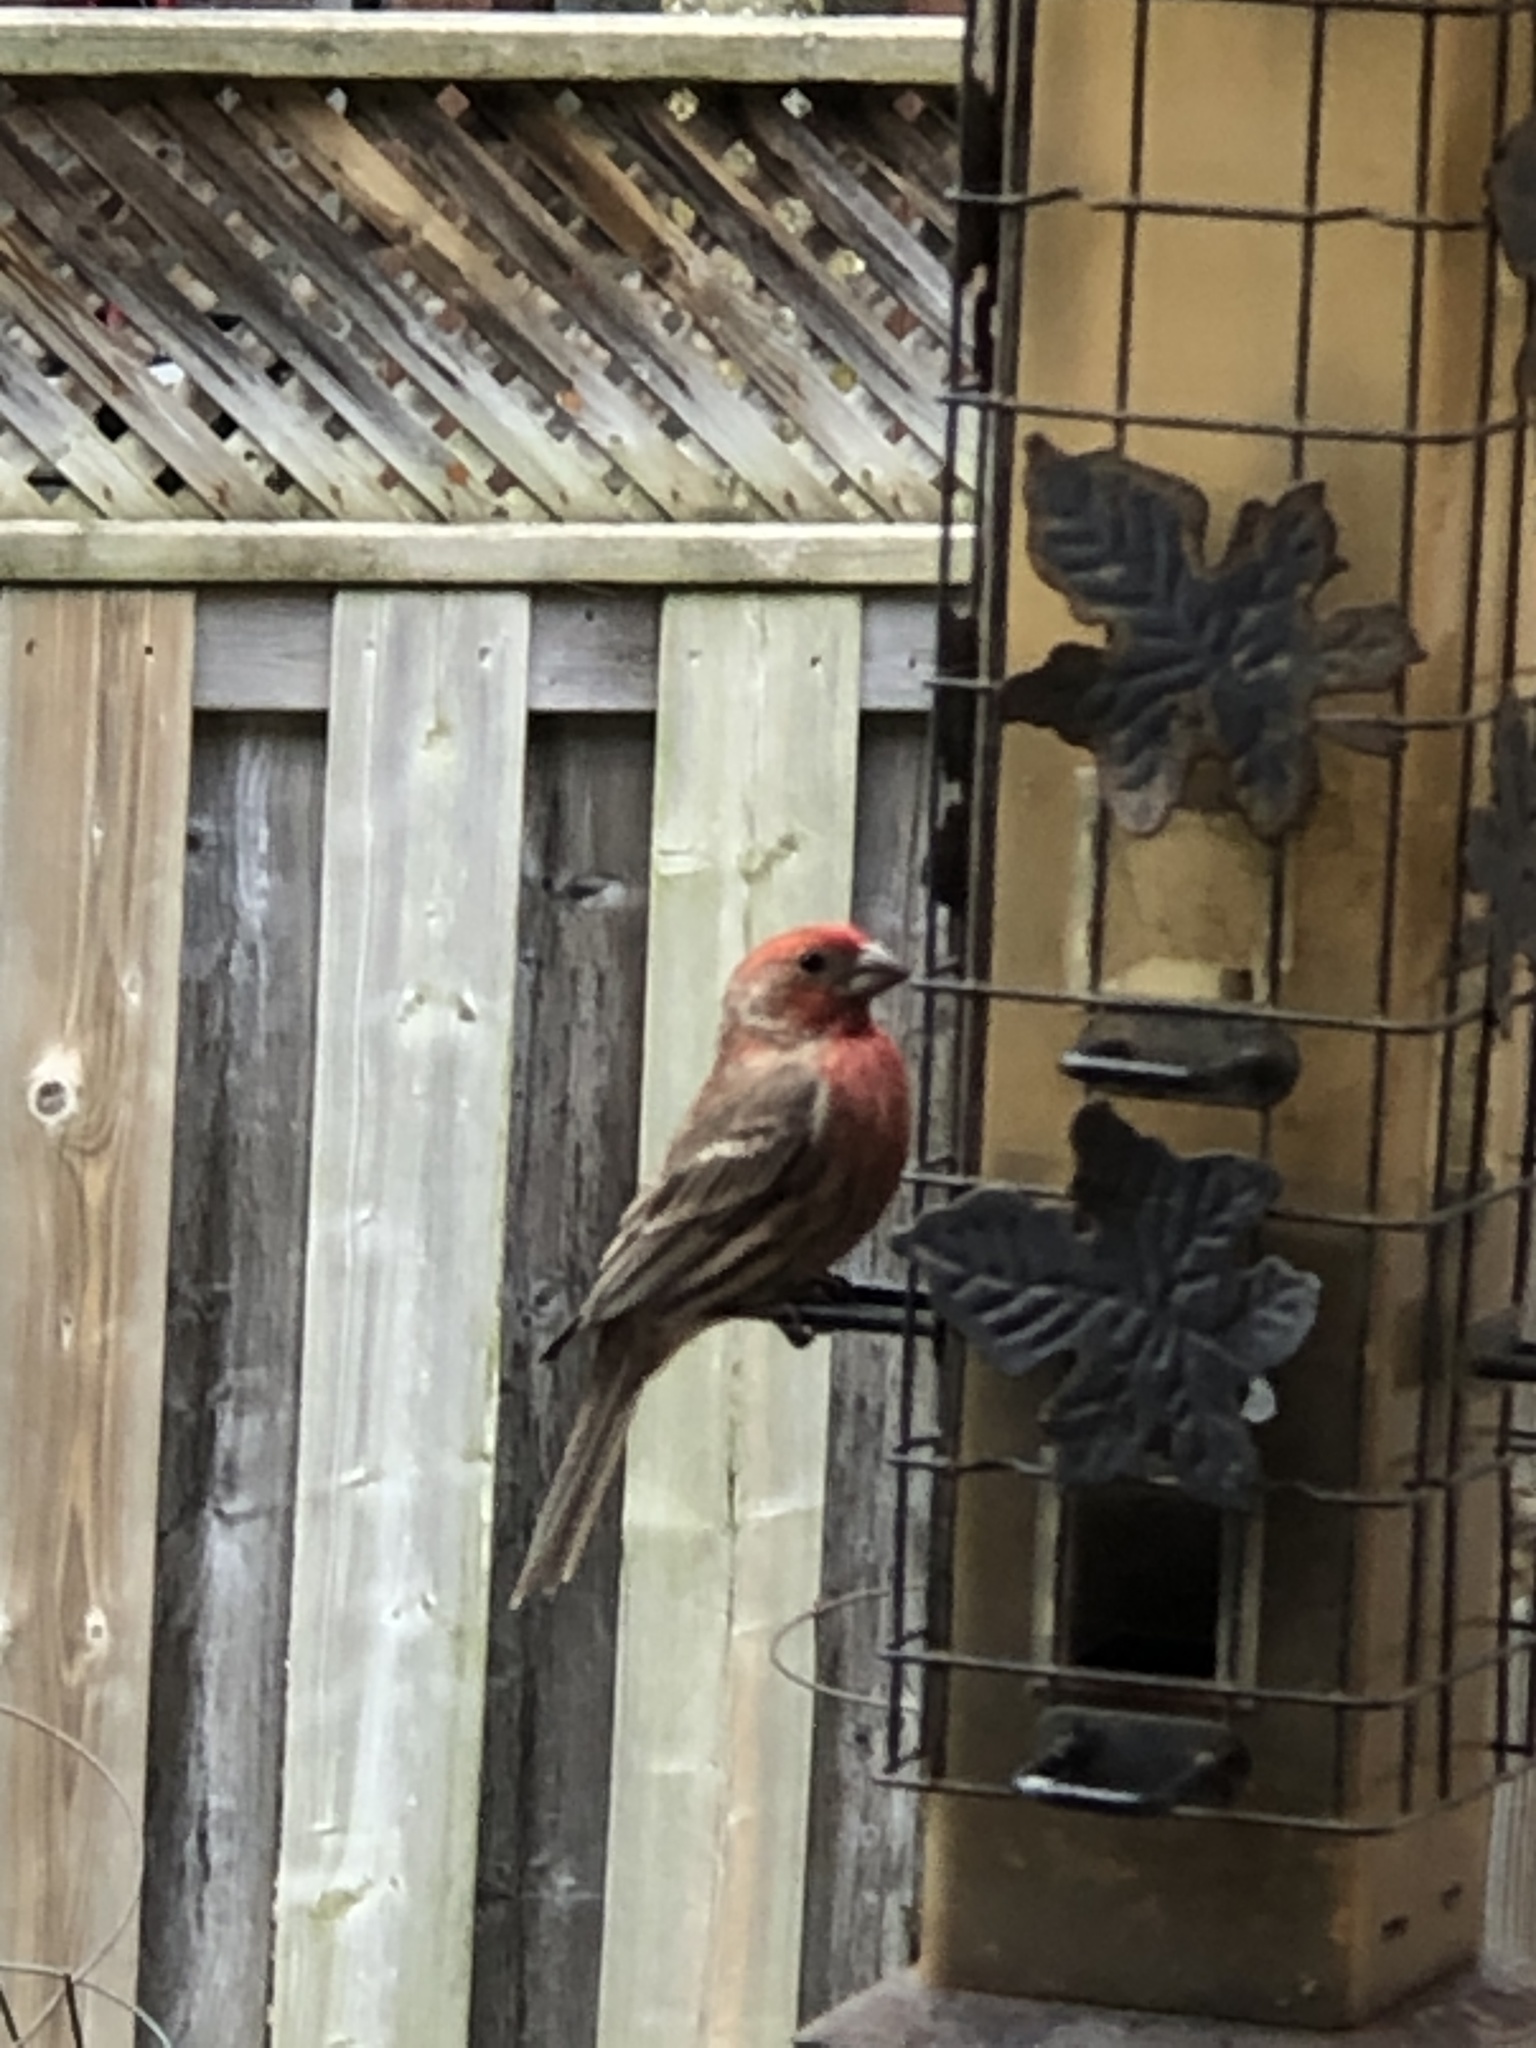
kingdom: Animalia
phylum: Chordata
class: Aves
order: Passeriformes
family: Fringillidae
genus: Haemorhous
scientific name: Haemorhous mexicanus
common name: House finch
